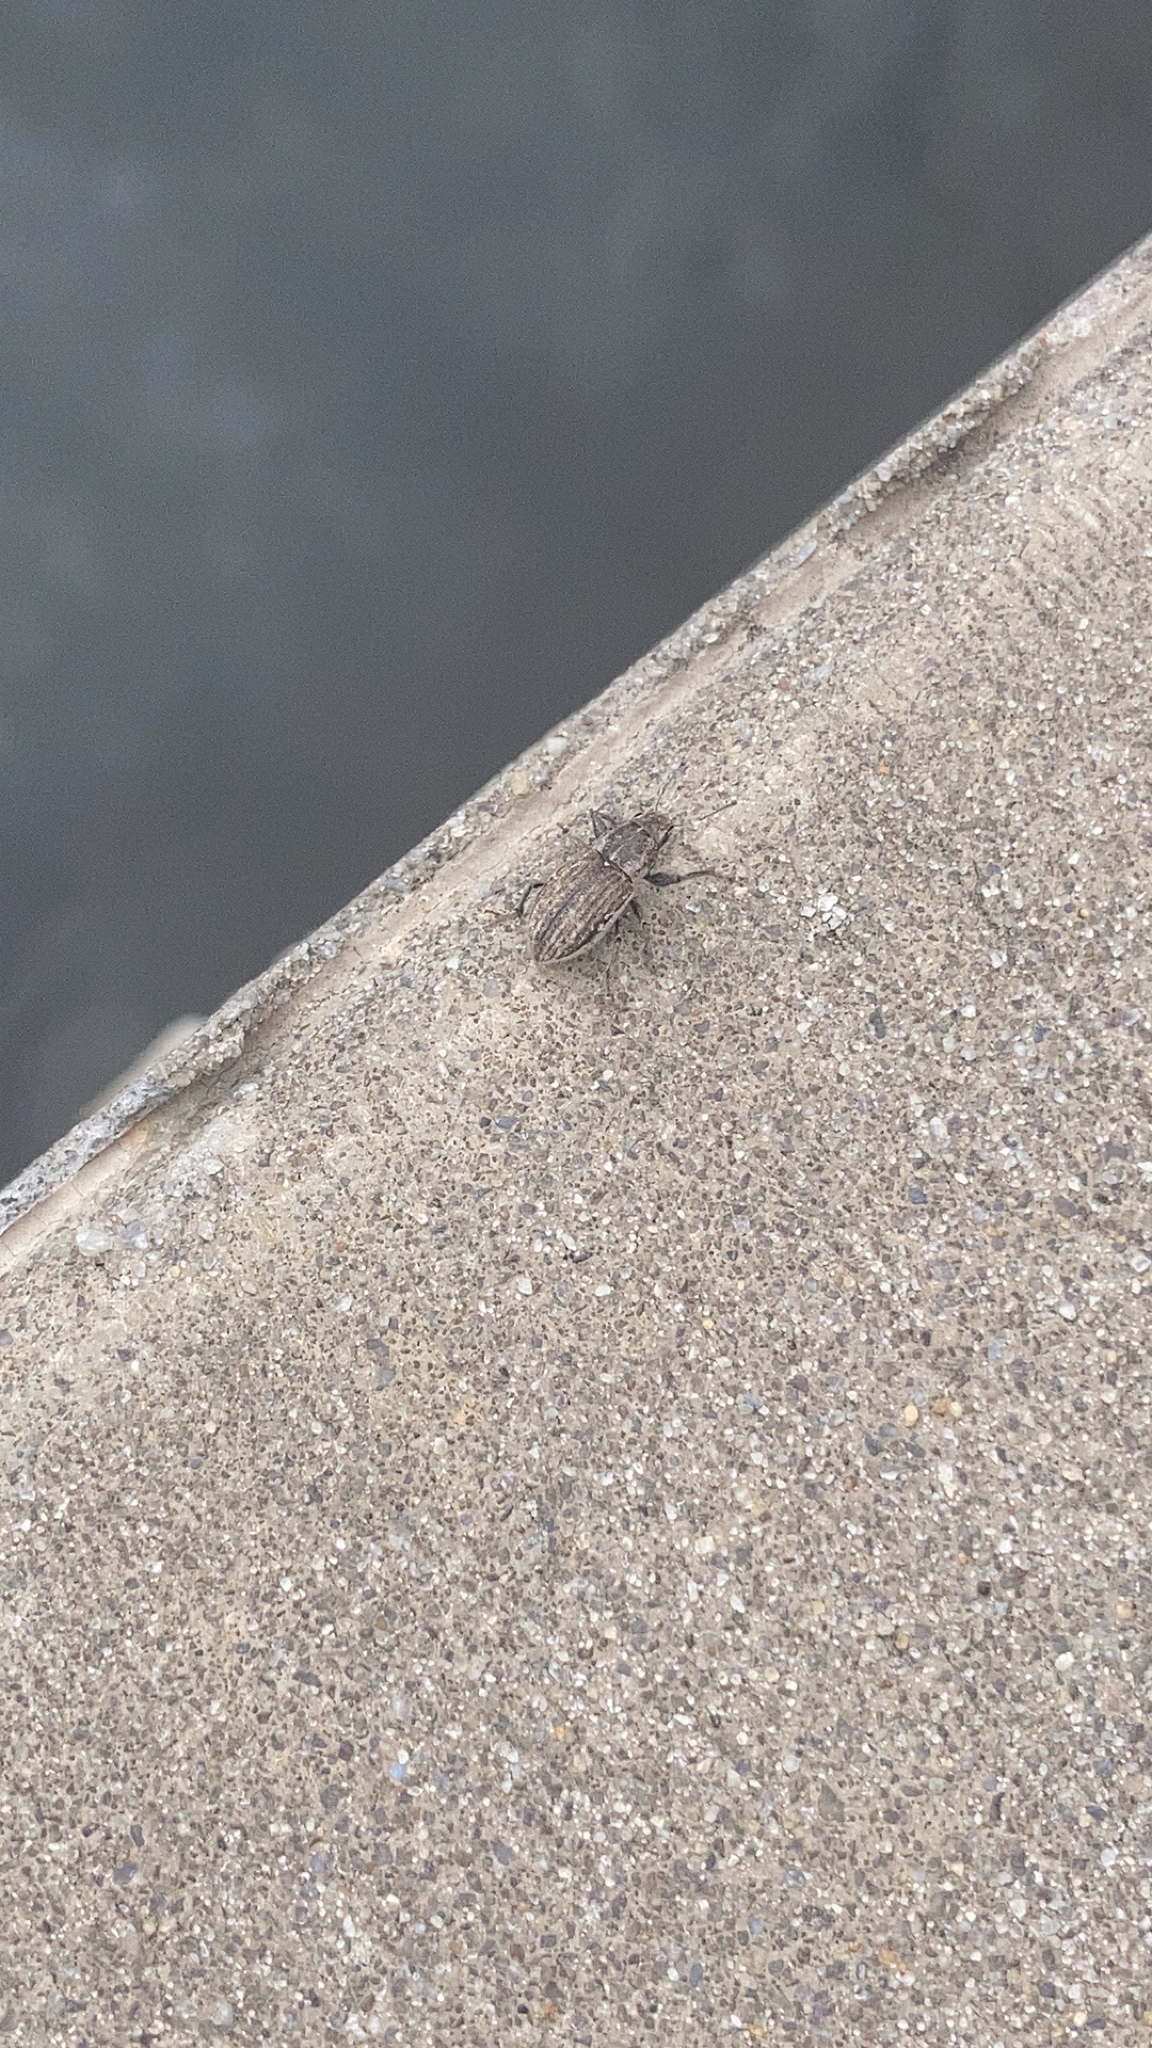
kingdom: Animalia
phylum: Arthropoda
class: Insecta
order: Coleoptera
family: Curculionidae
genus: Naupactus
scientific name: Naupactus leucoloma
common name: Whitefringed beetle
